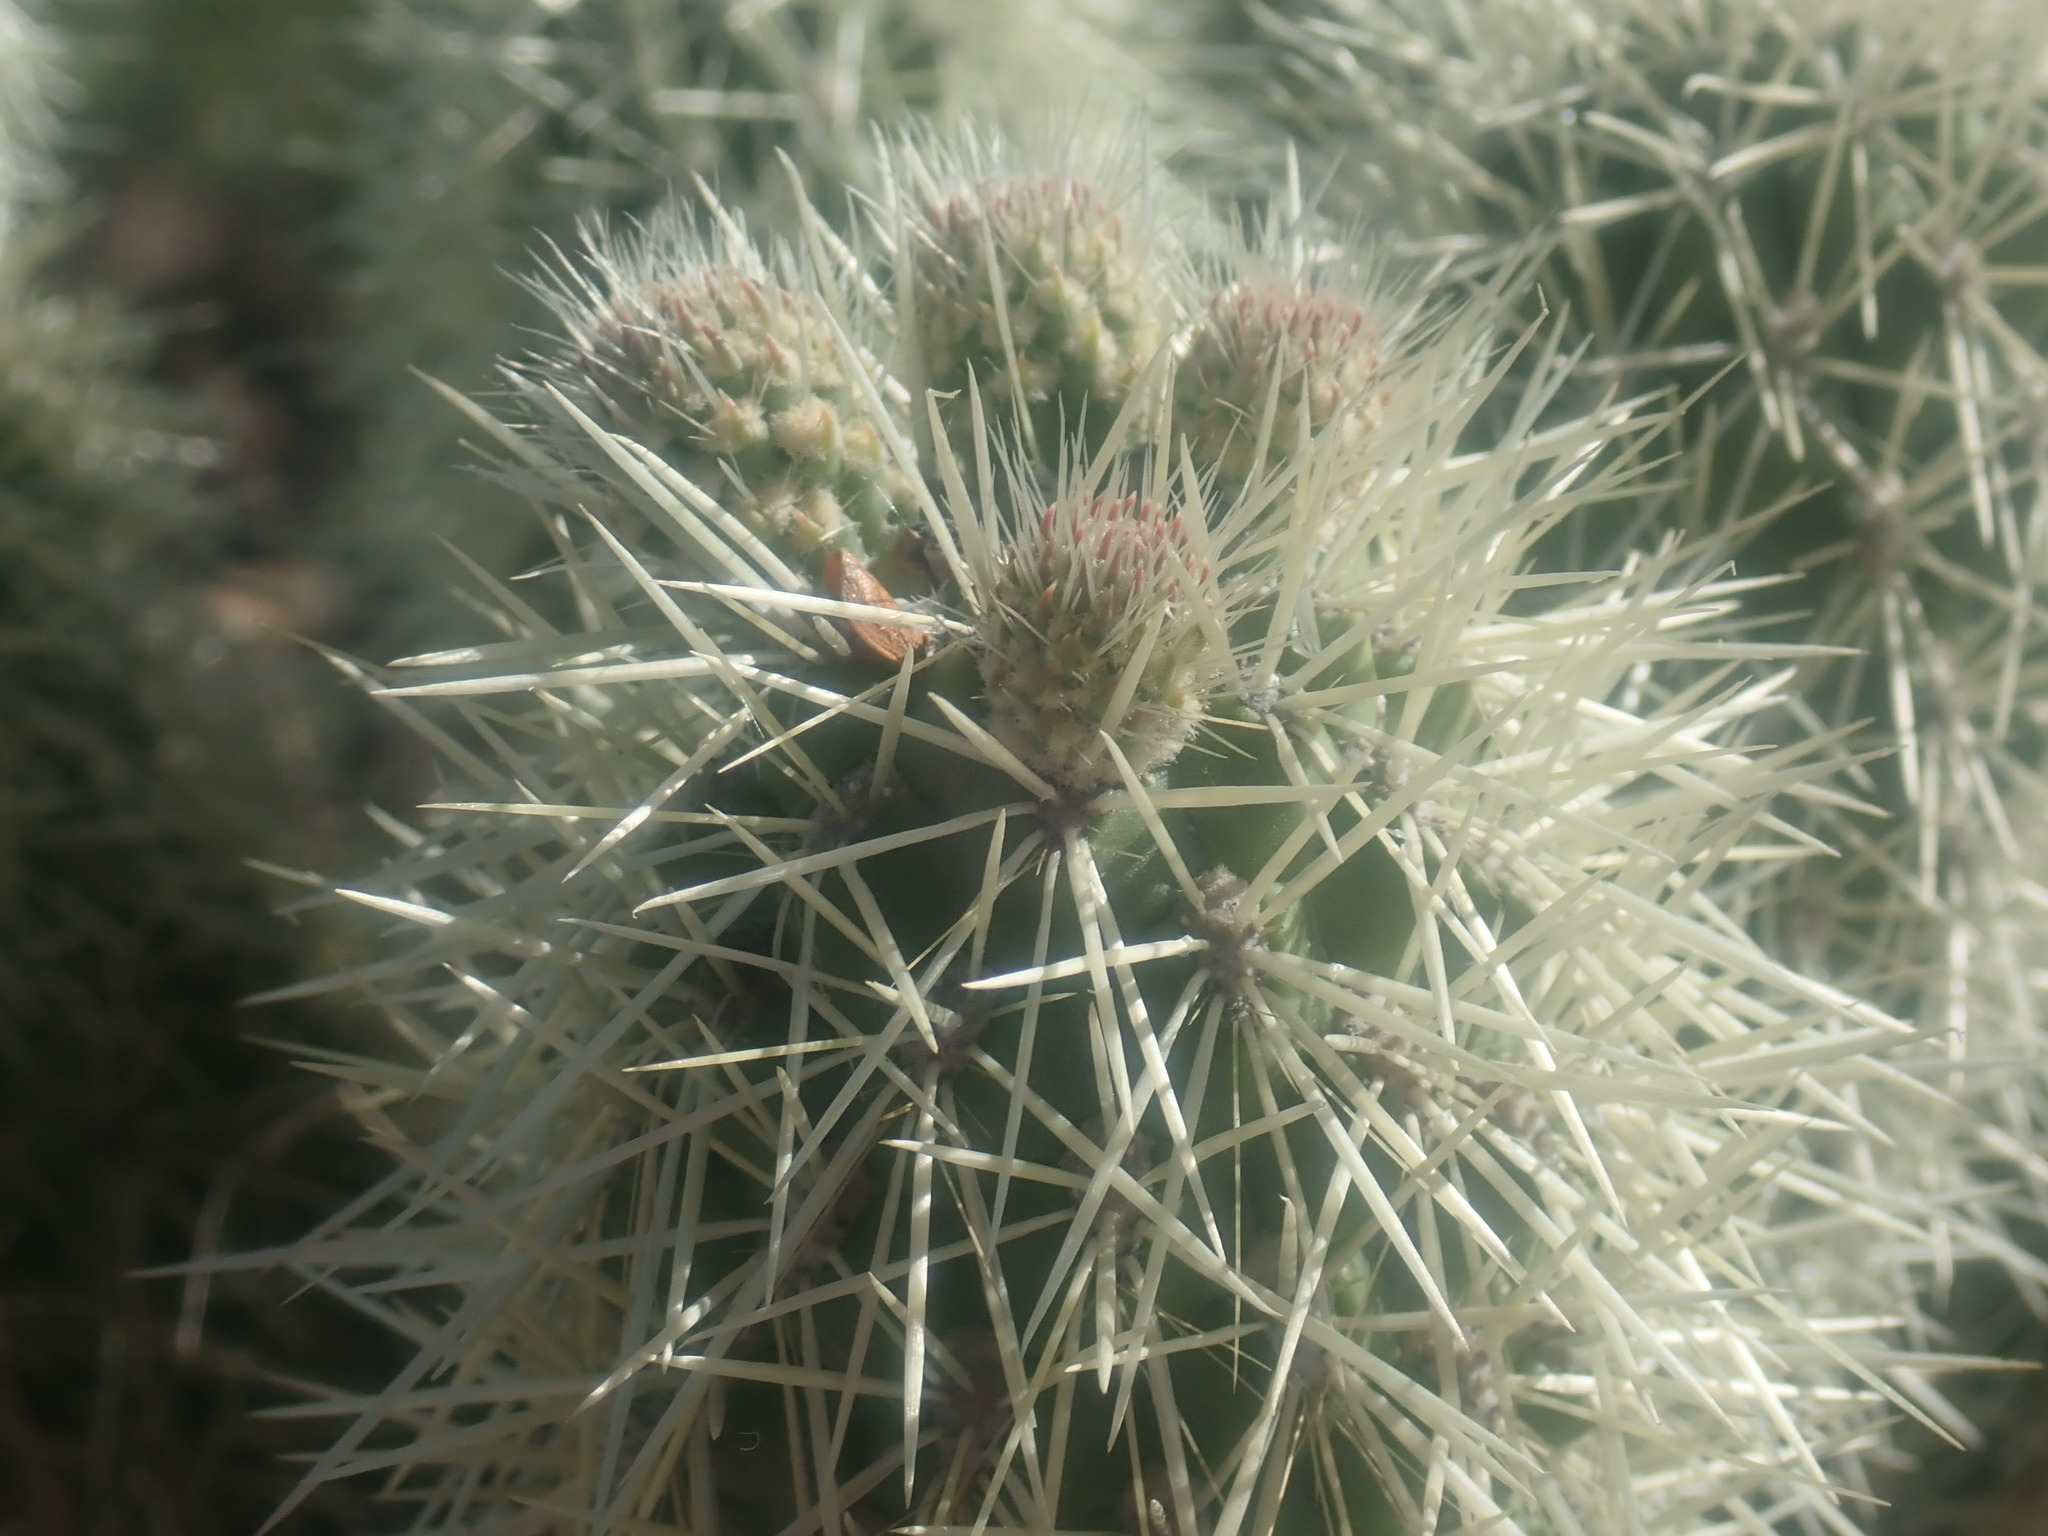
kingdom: Plantae
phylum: Tracheophyta
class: Magnoliopsida
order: Caryophyllales
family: Cactaceae
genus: Cylindropuntia
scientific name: Cylindropuntia fosbergii
